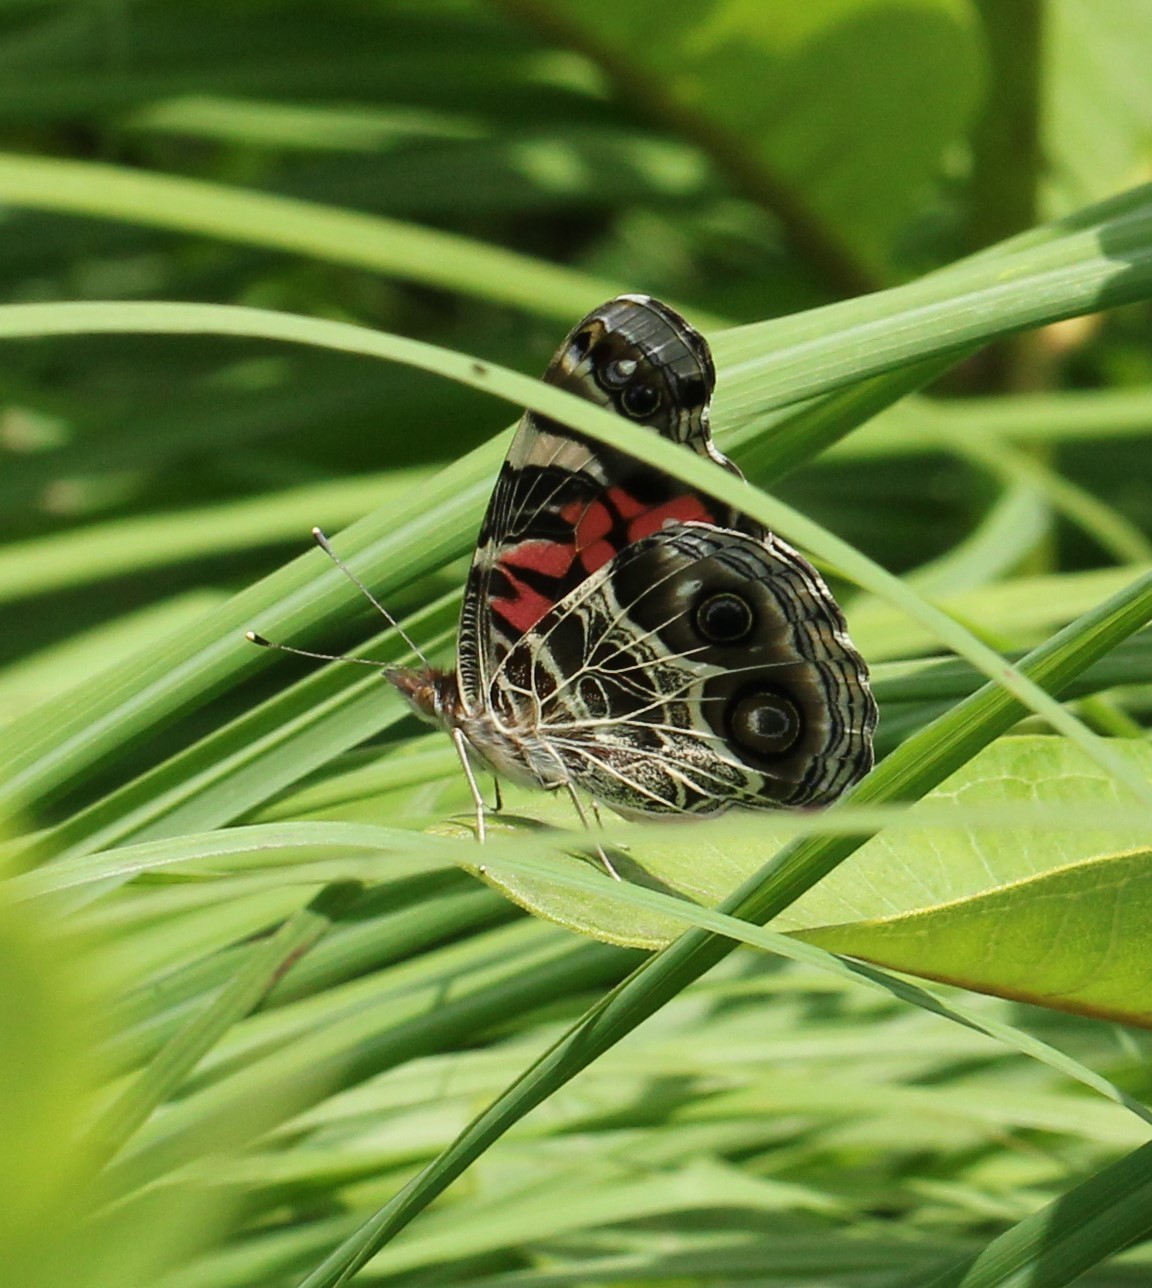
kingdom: Animalia
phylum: Arthropoda
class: Insecta
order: Lepidoptera
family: Nymphalidae
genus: Vanessa
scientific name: Vanessa virginiensis
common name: American lady
